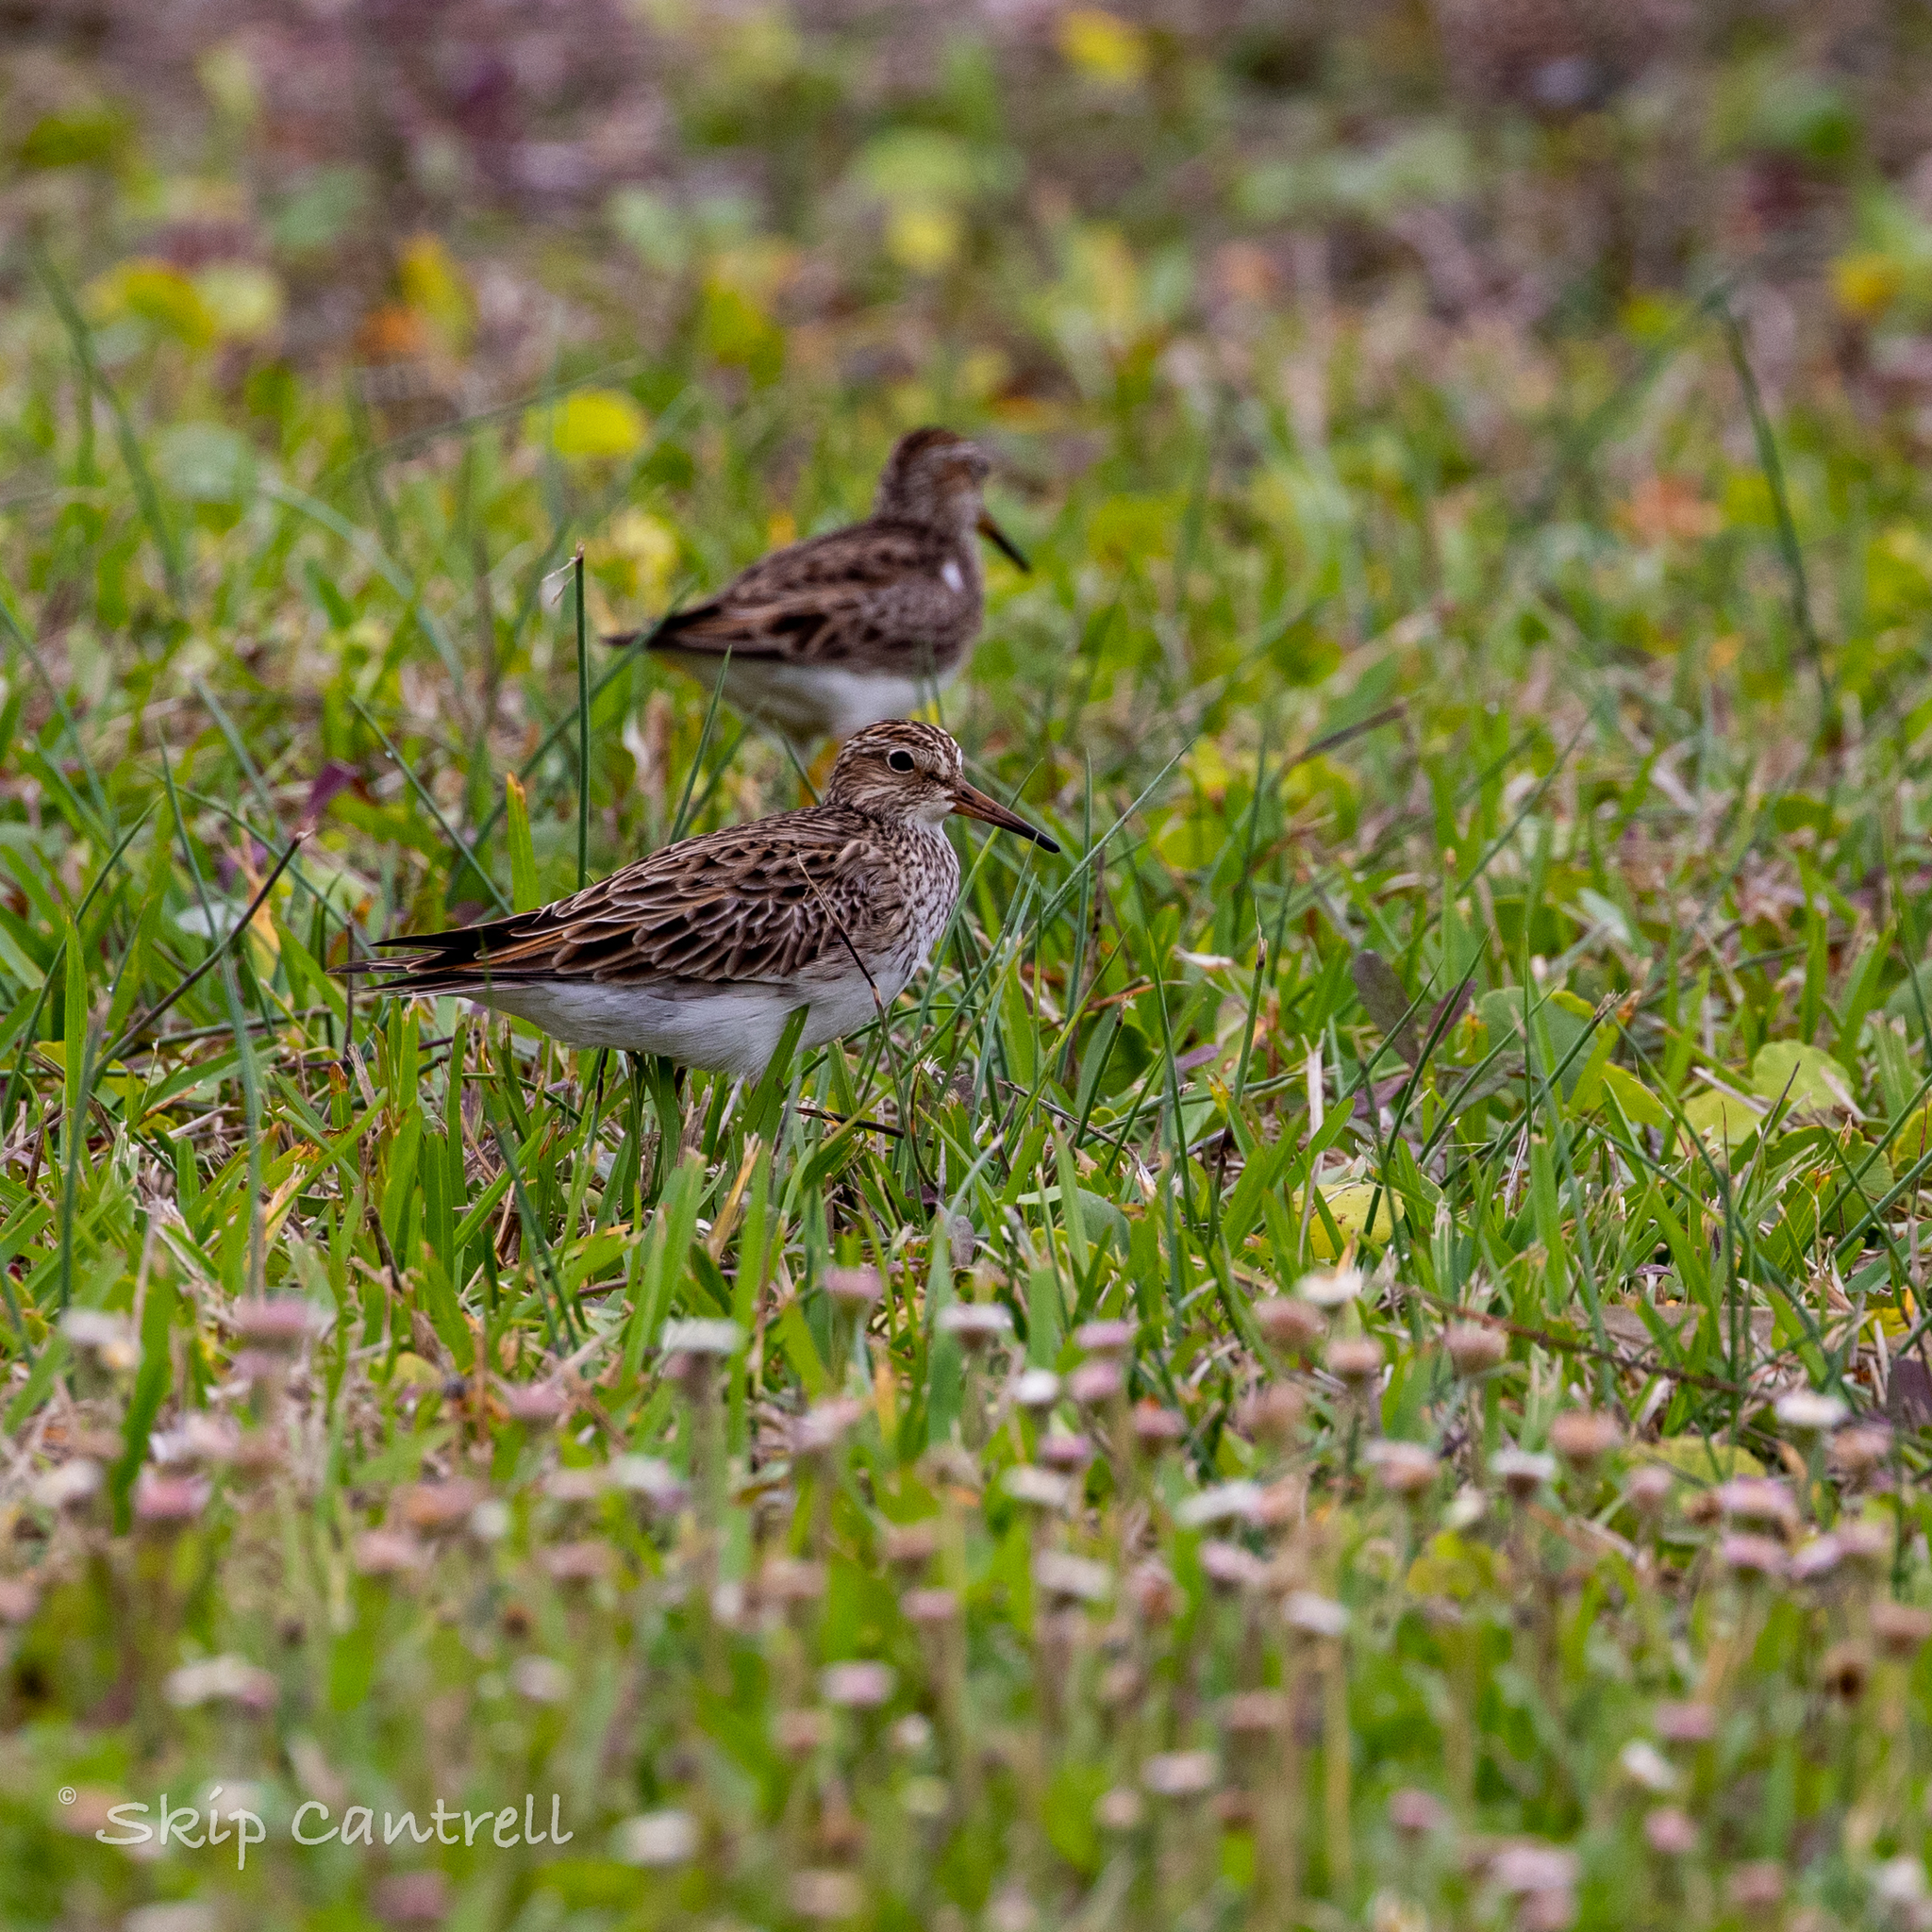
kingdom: Animalia
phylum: Chordata
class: Aves
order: Charadriiformes
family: Scolopacidae
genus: Calidris
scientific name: Calidris melanotos
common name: Pectoral sandpiper
